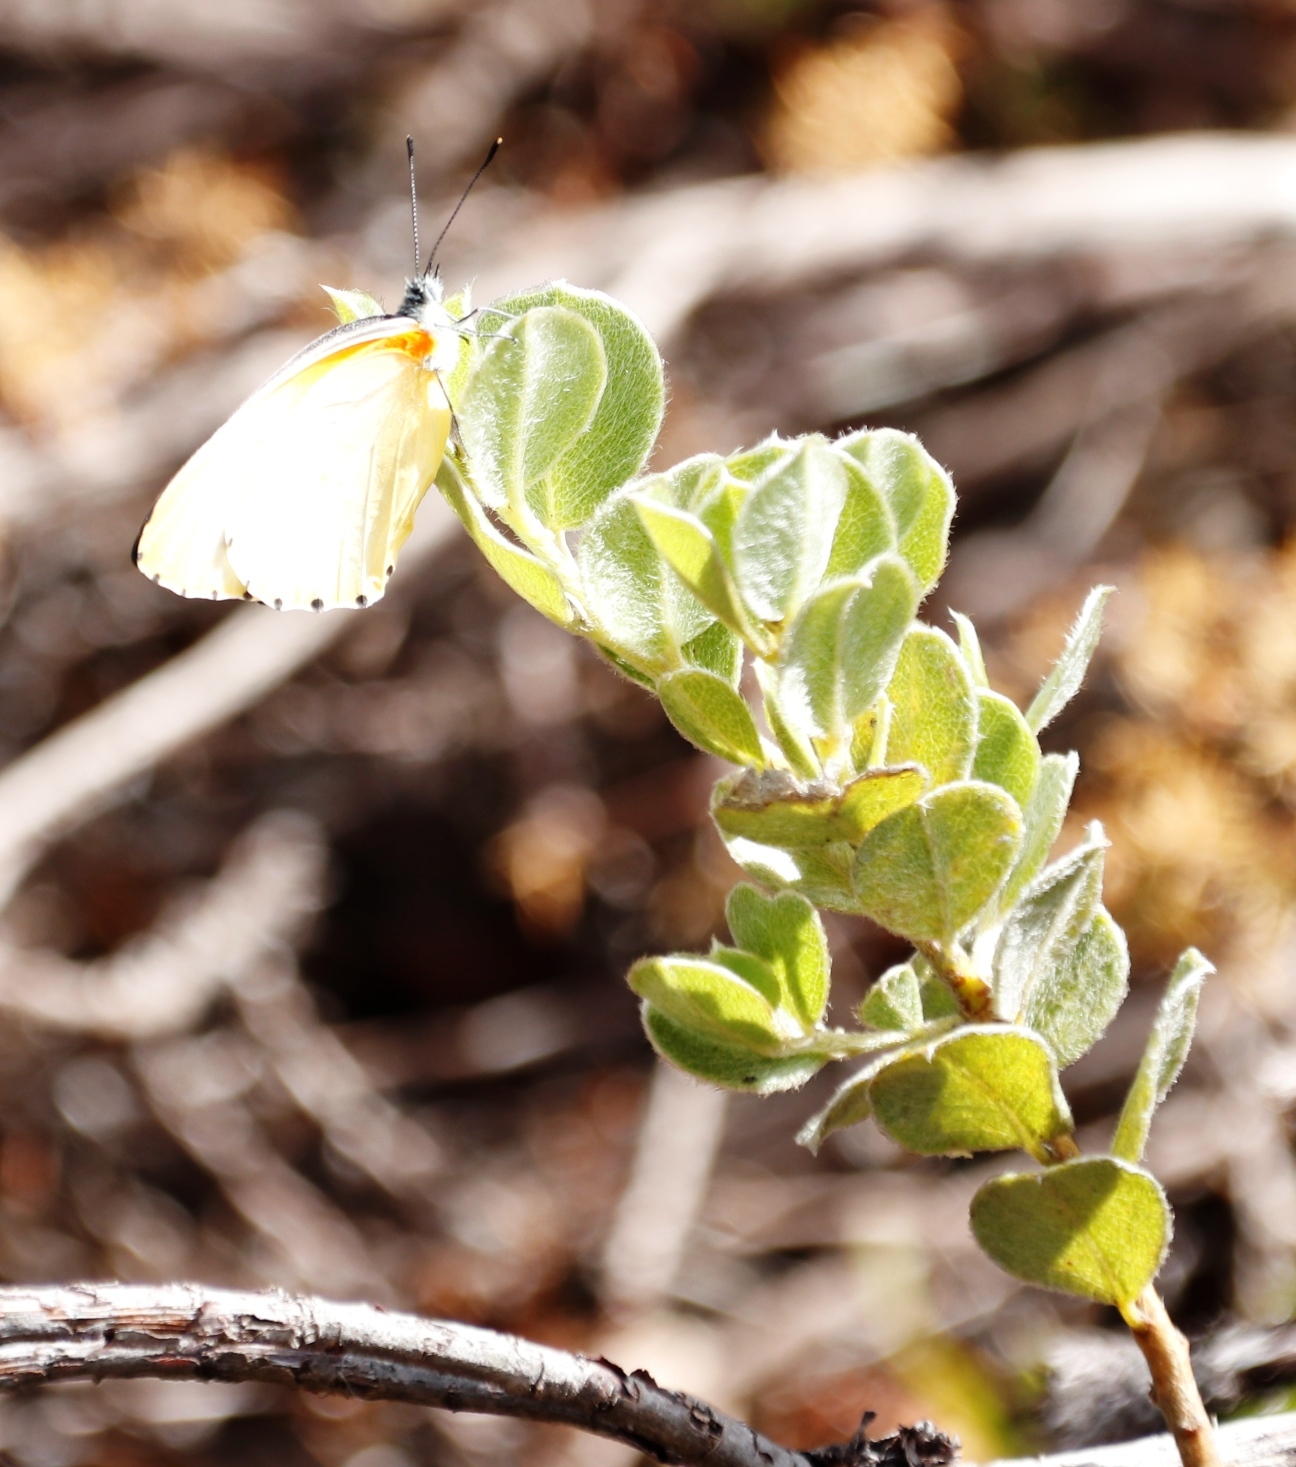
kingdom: Animalia
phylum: Arthropoda
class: Insecta
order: Lepidoptera
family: Pieridae
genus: Mylothris
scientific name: Mylothris agathina
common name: Eastern dotted border
